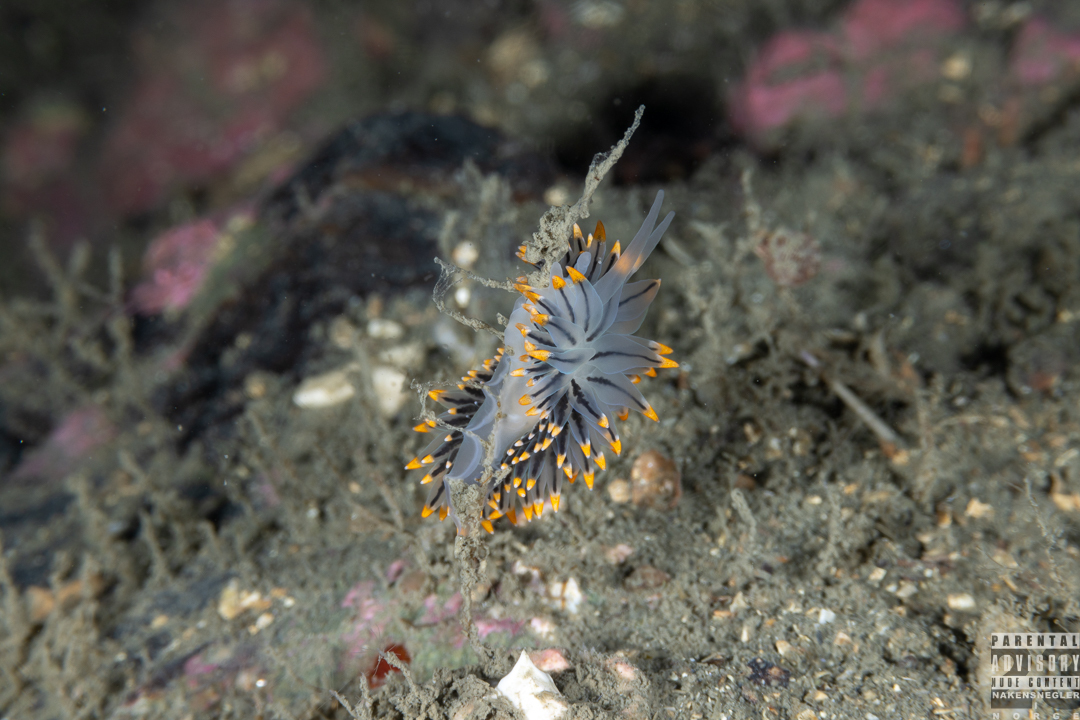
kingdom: Animalia
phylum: Mollusca
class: Gastropoda
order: Nudibranchia
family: Eubranchidae
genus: Eubranchus
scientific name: Eubranchus tricolor
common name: Painted balloon aeolis
